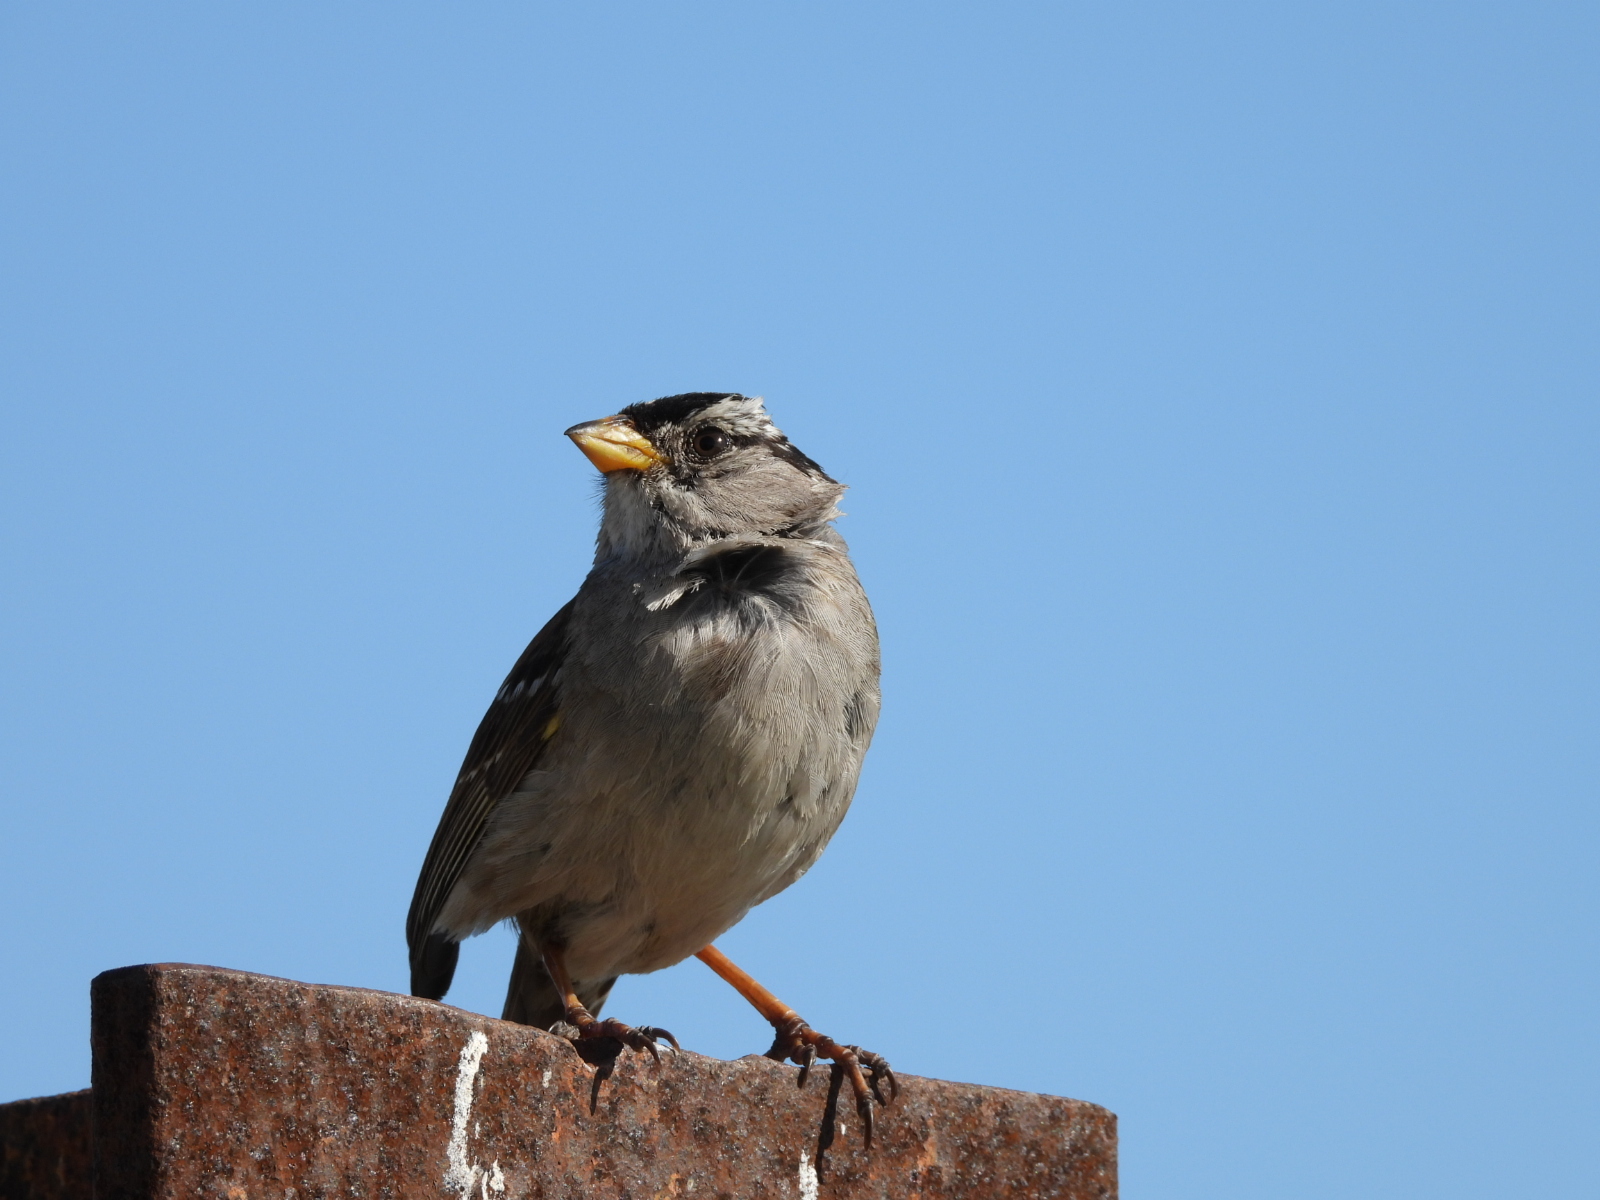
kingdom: Animalia
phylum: Chordata
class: Aves
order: Passeriformes
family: Passerellidae
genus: Zonotrichia
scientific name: Zonotrichia leucophrys
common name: White-crowned sparrow
